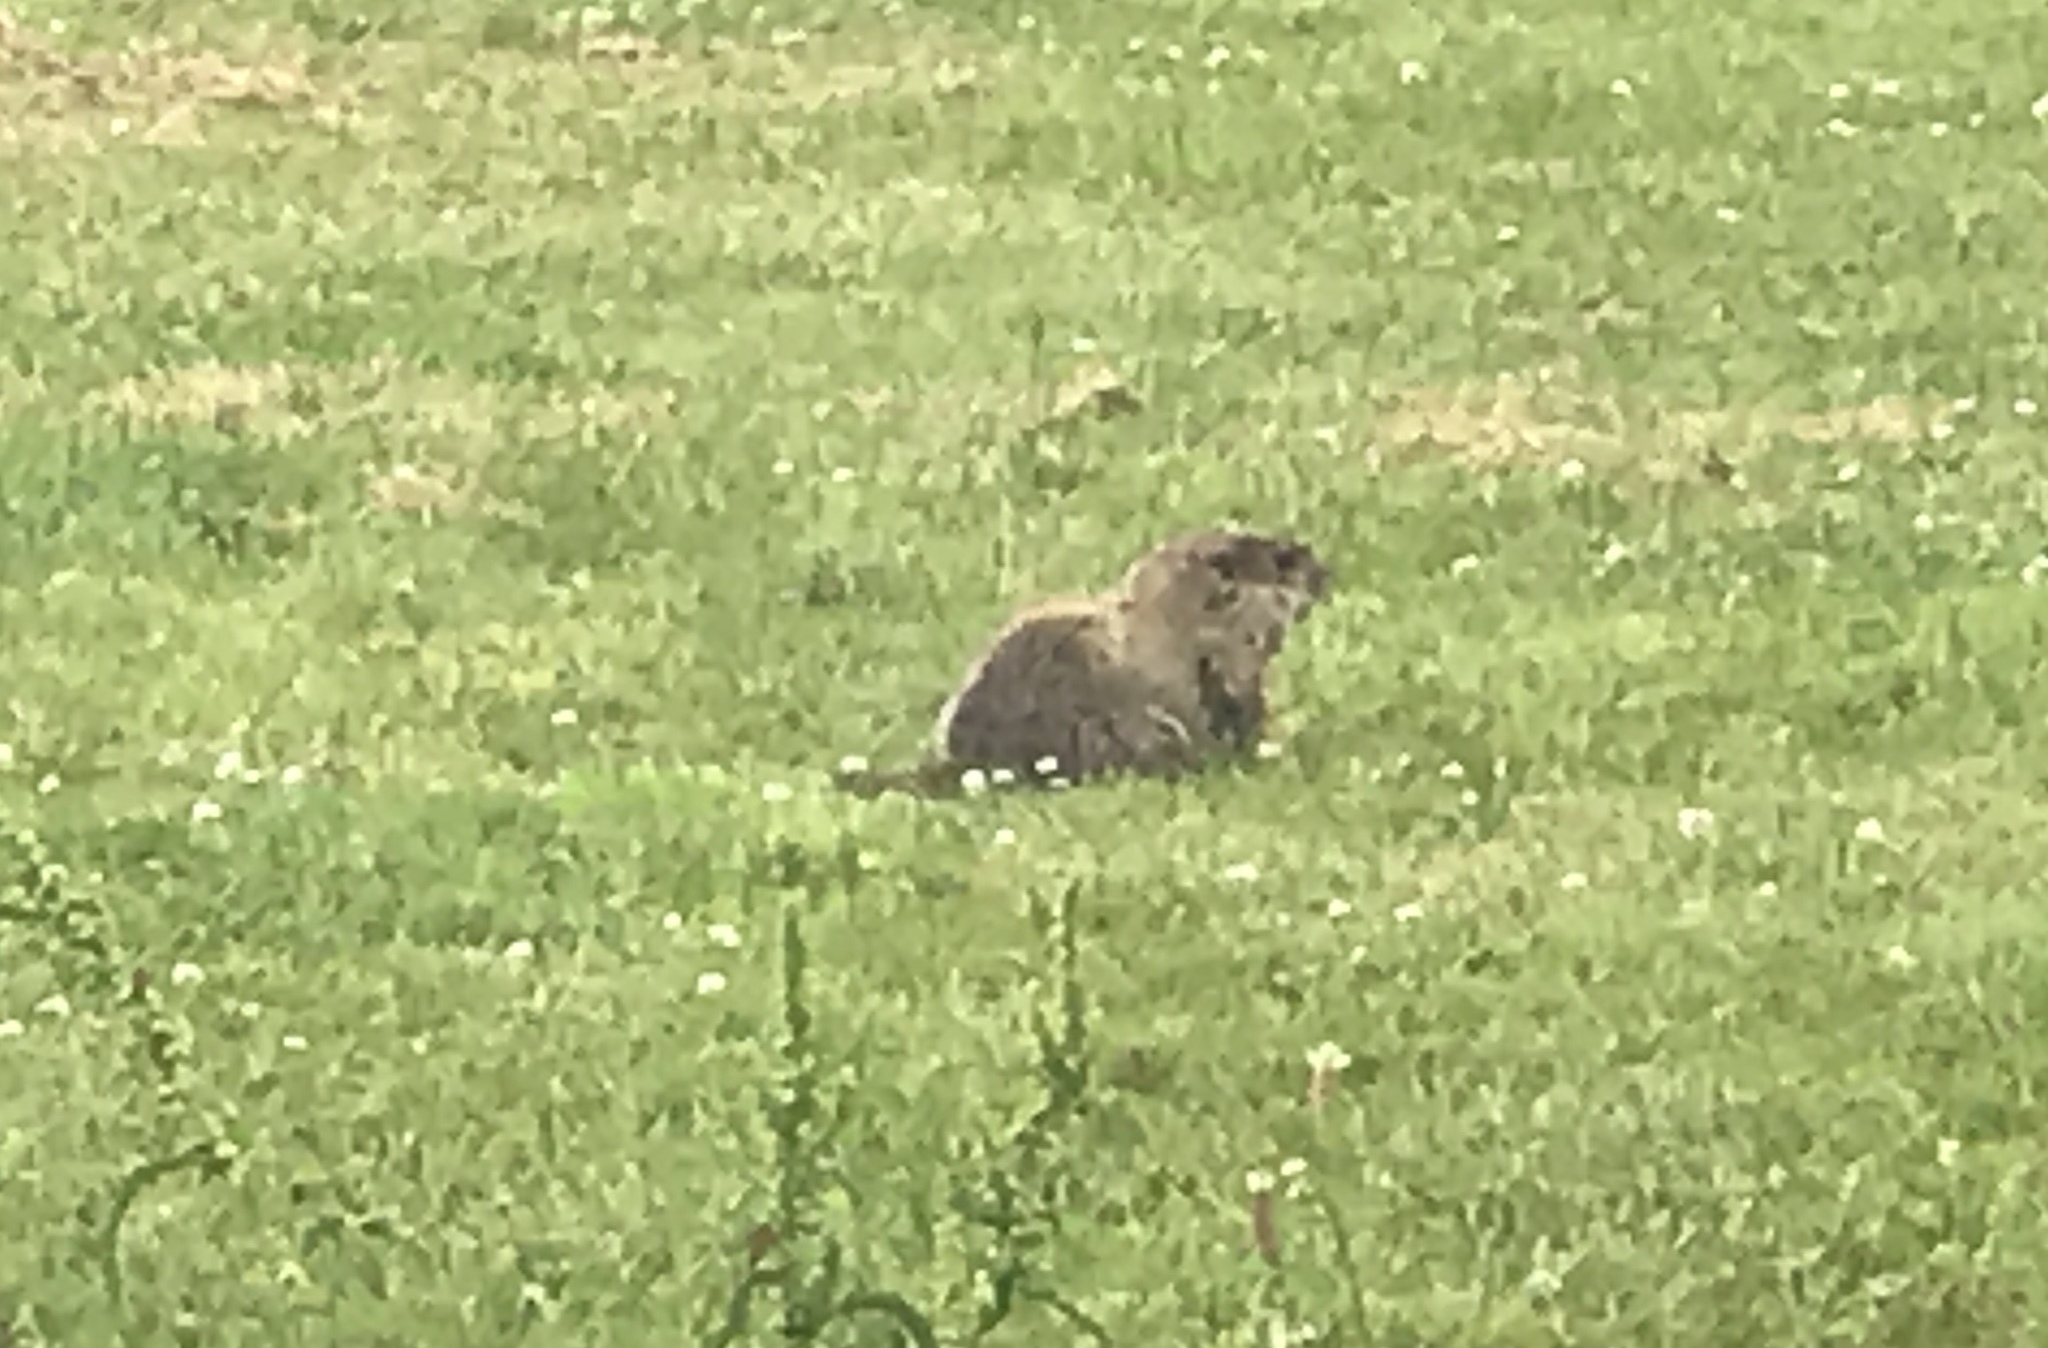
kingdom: Animalia
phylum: Chordata
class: Mammalia
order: Rodentia
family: Sciuridae
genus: Marmota
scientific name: Marmota monax
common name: Groundhog
